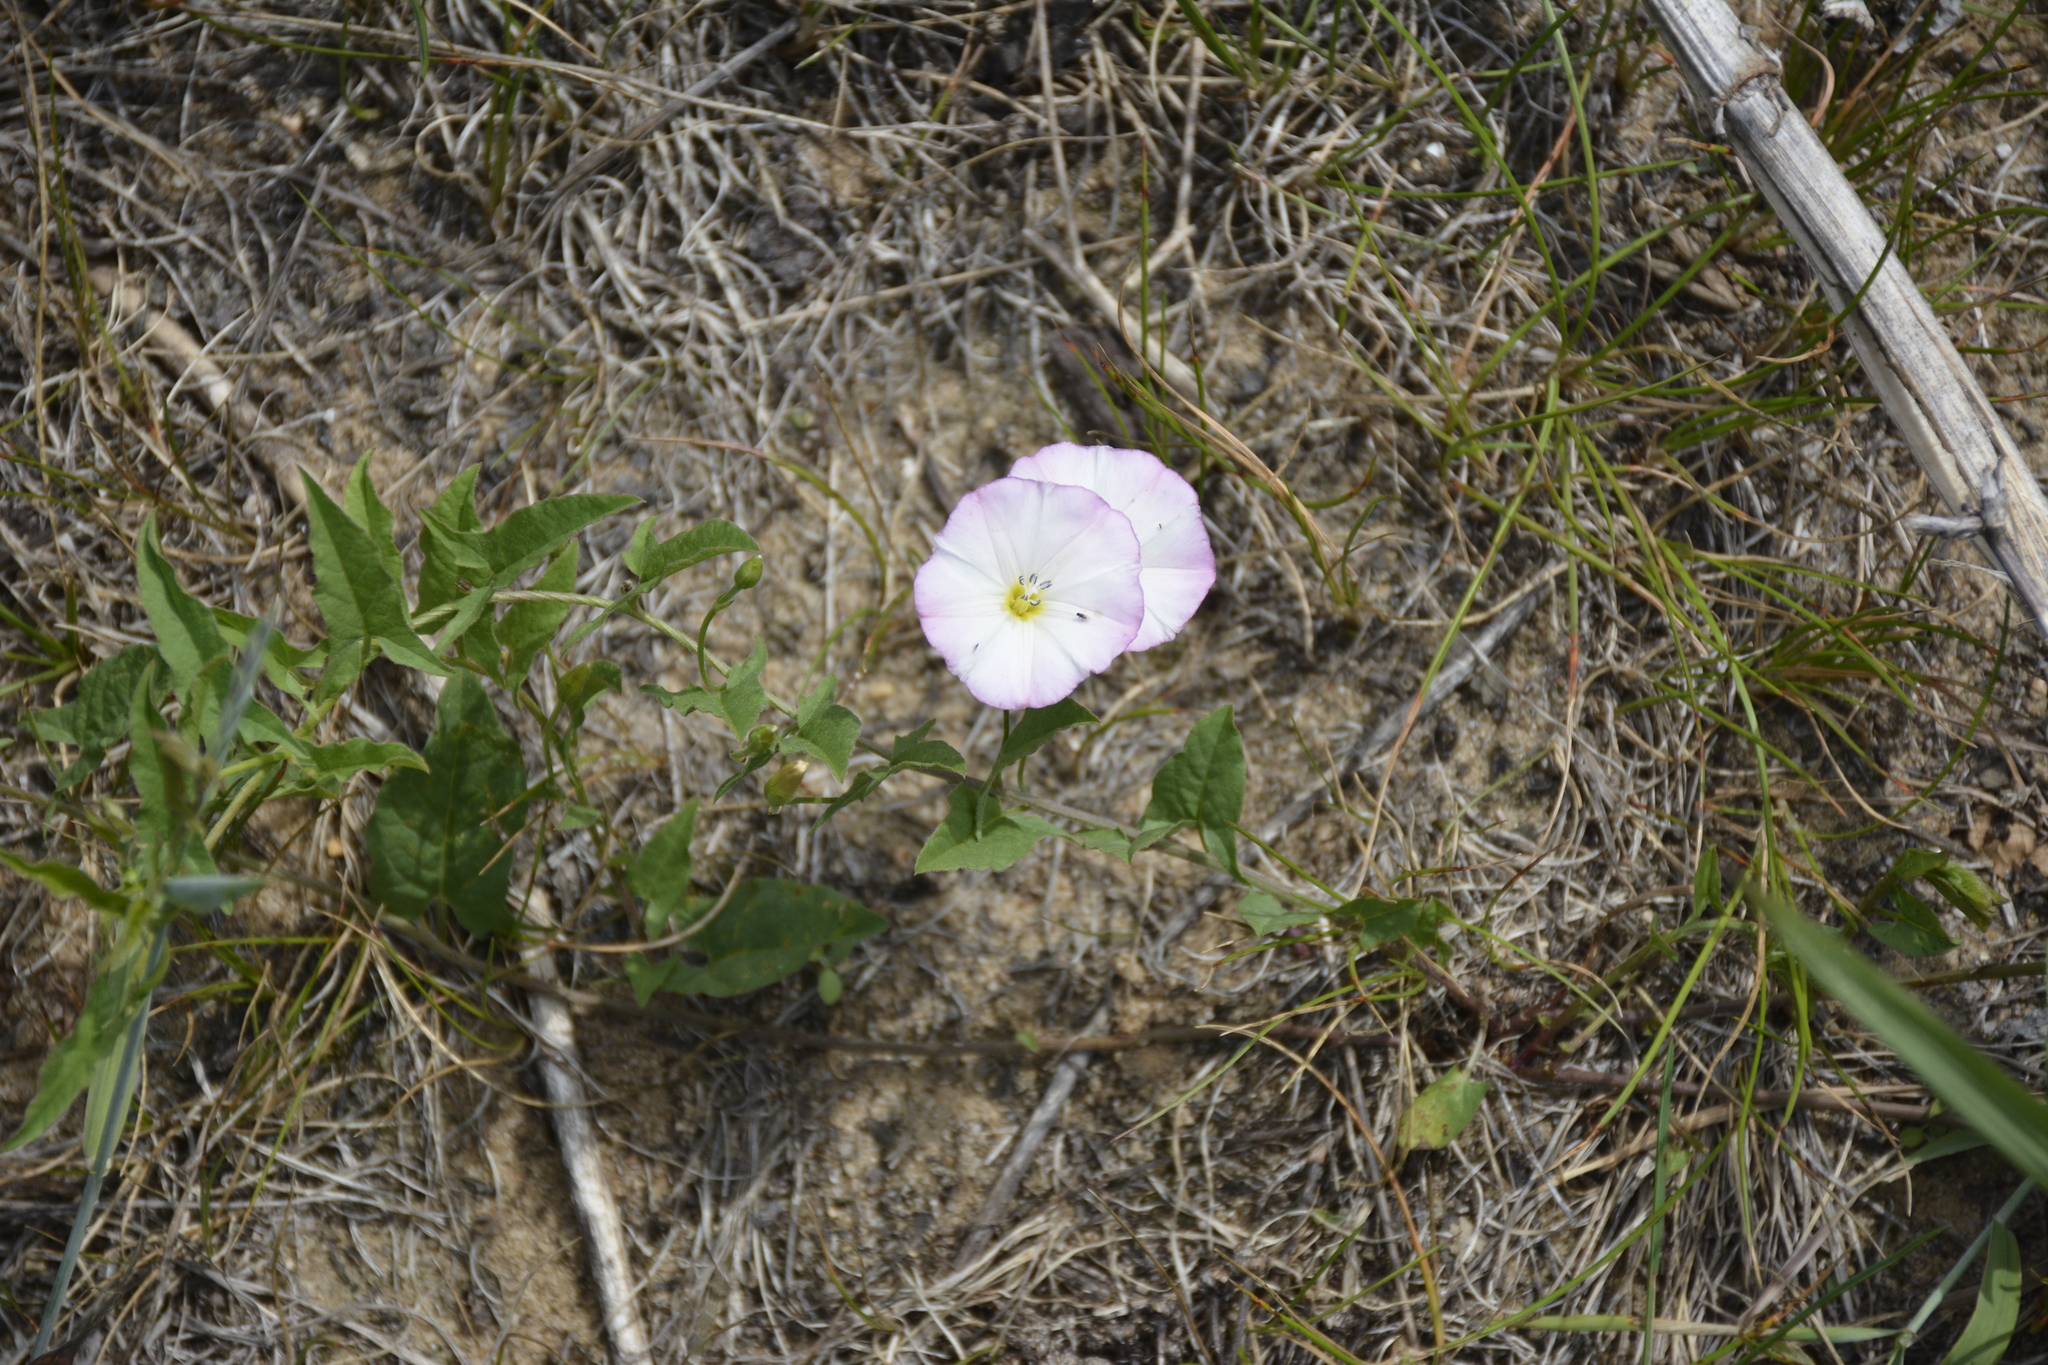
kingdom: Plantae
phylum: Tracheophyta
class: Magnoliopsida
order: Solanales
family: Convolvulaceae
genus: Convolvulus
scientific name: Convolvulus arvensis
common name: Field bindweed
